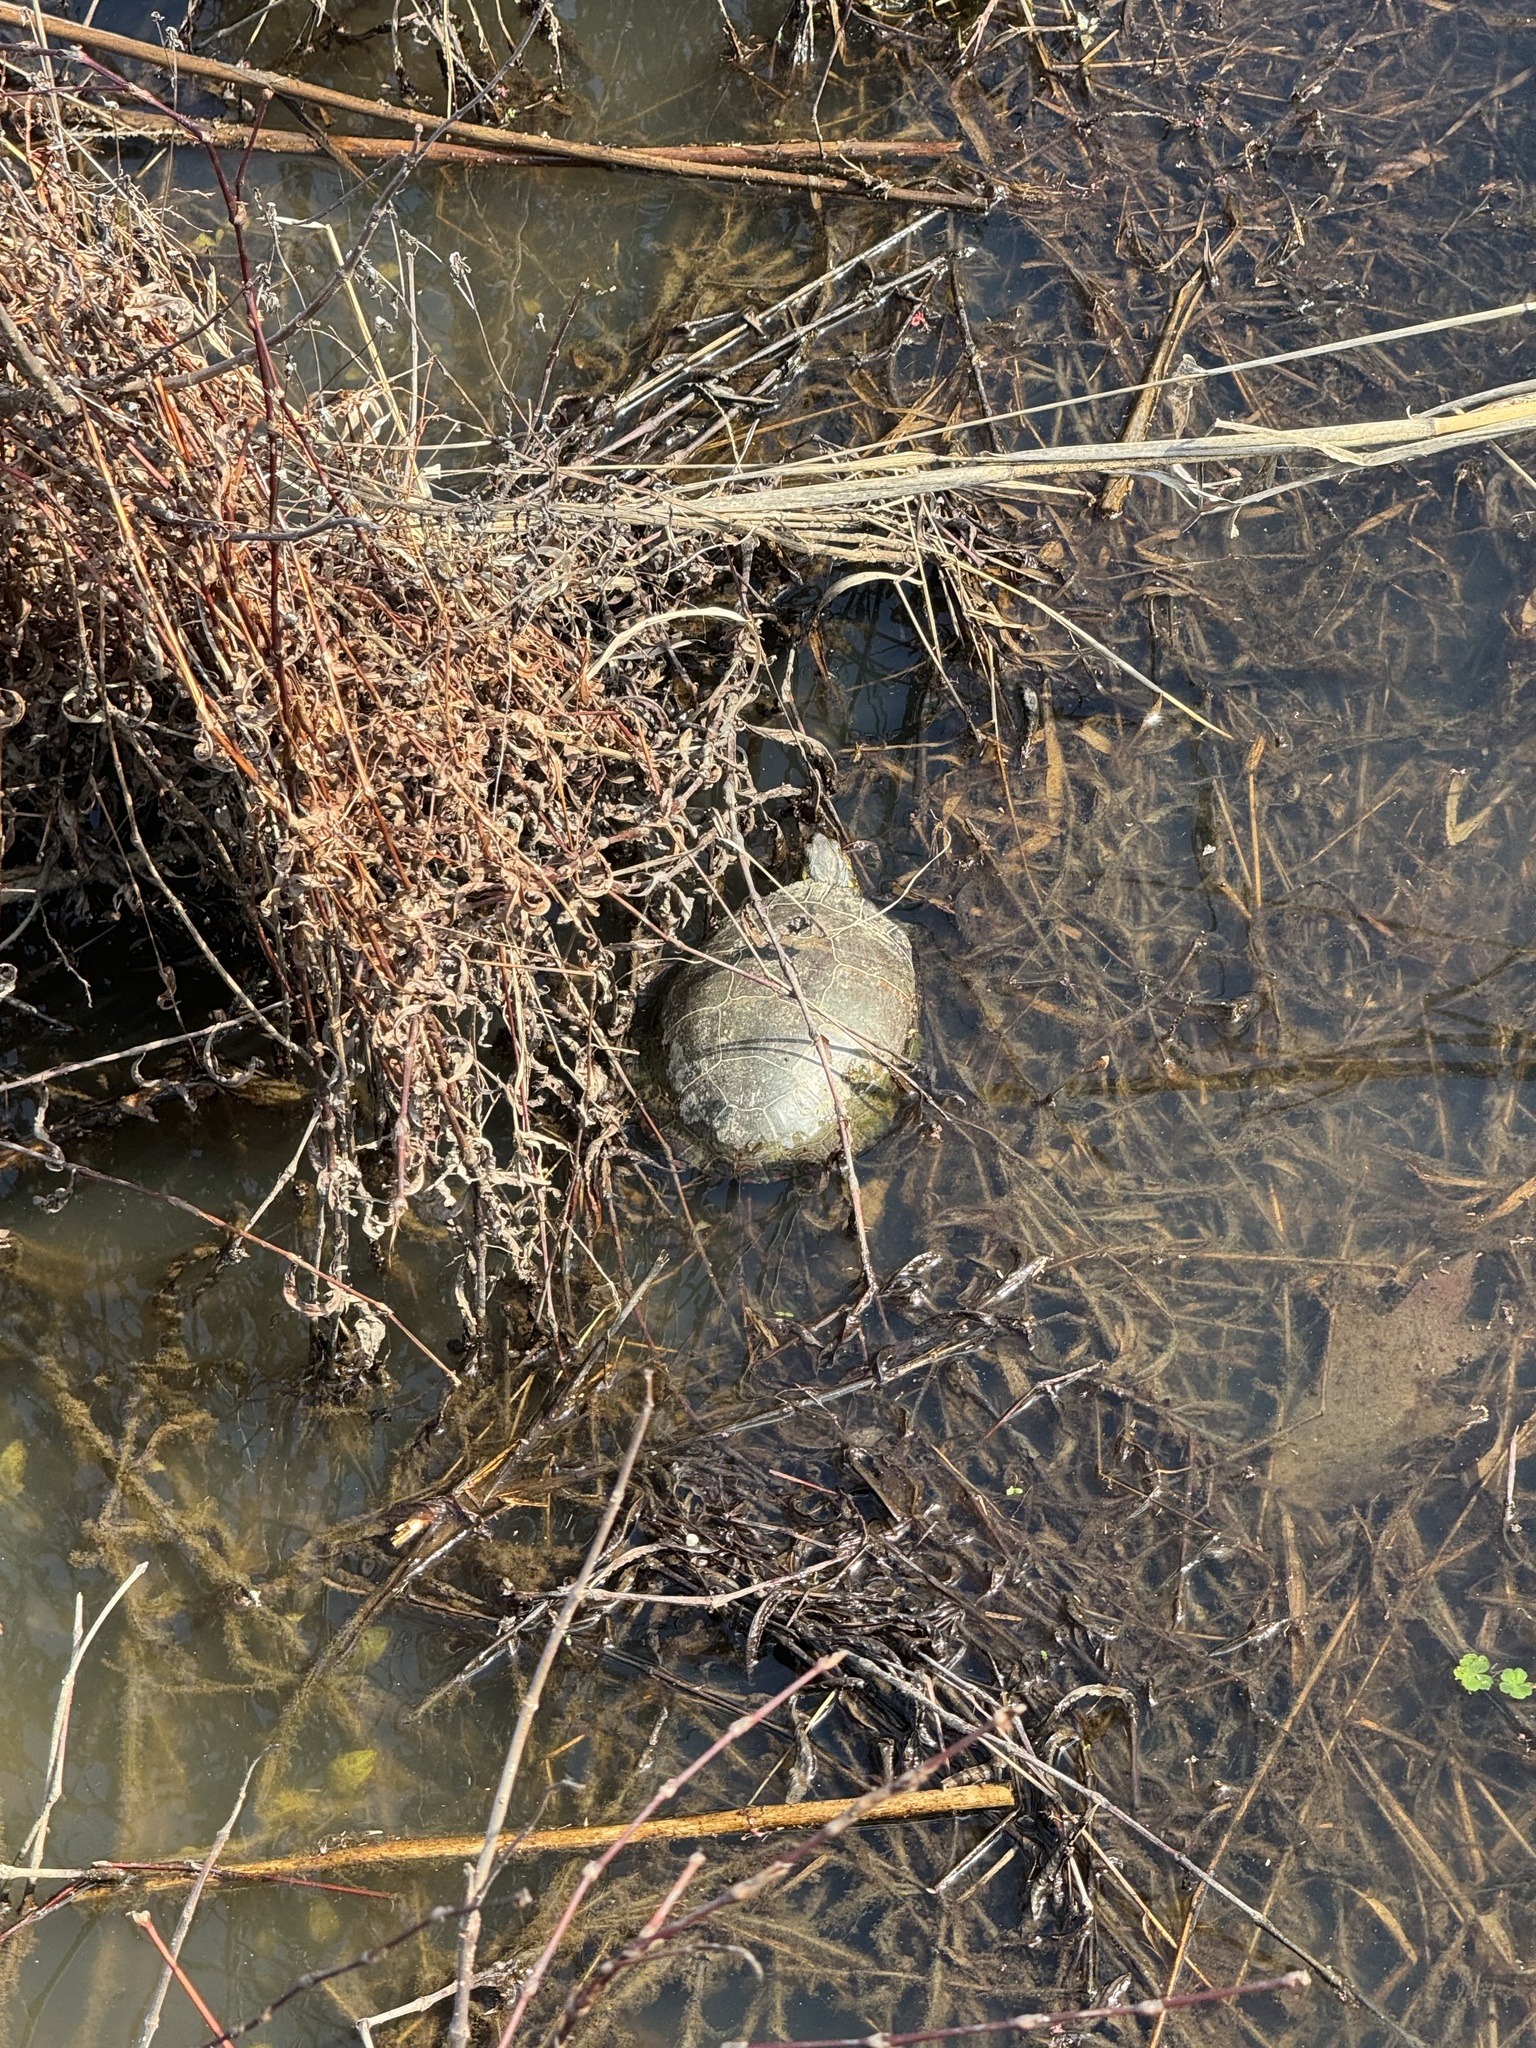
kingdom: Animalia
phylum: Chordata
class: Testudines
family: Emydidae
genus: Chrysemys
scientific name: Chrysemys picta
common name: Painted turtle
